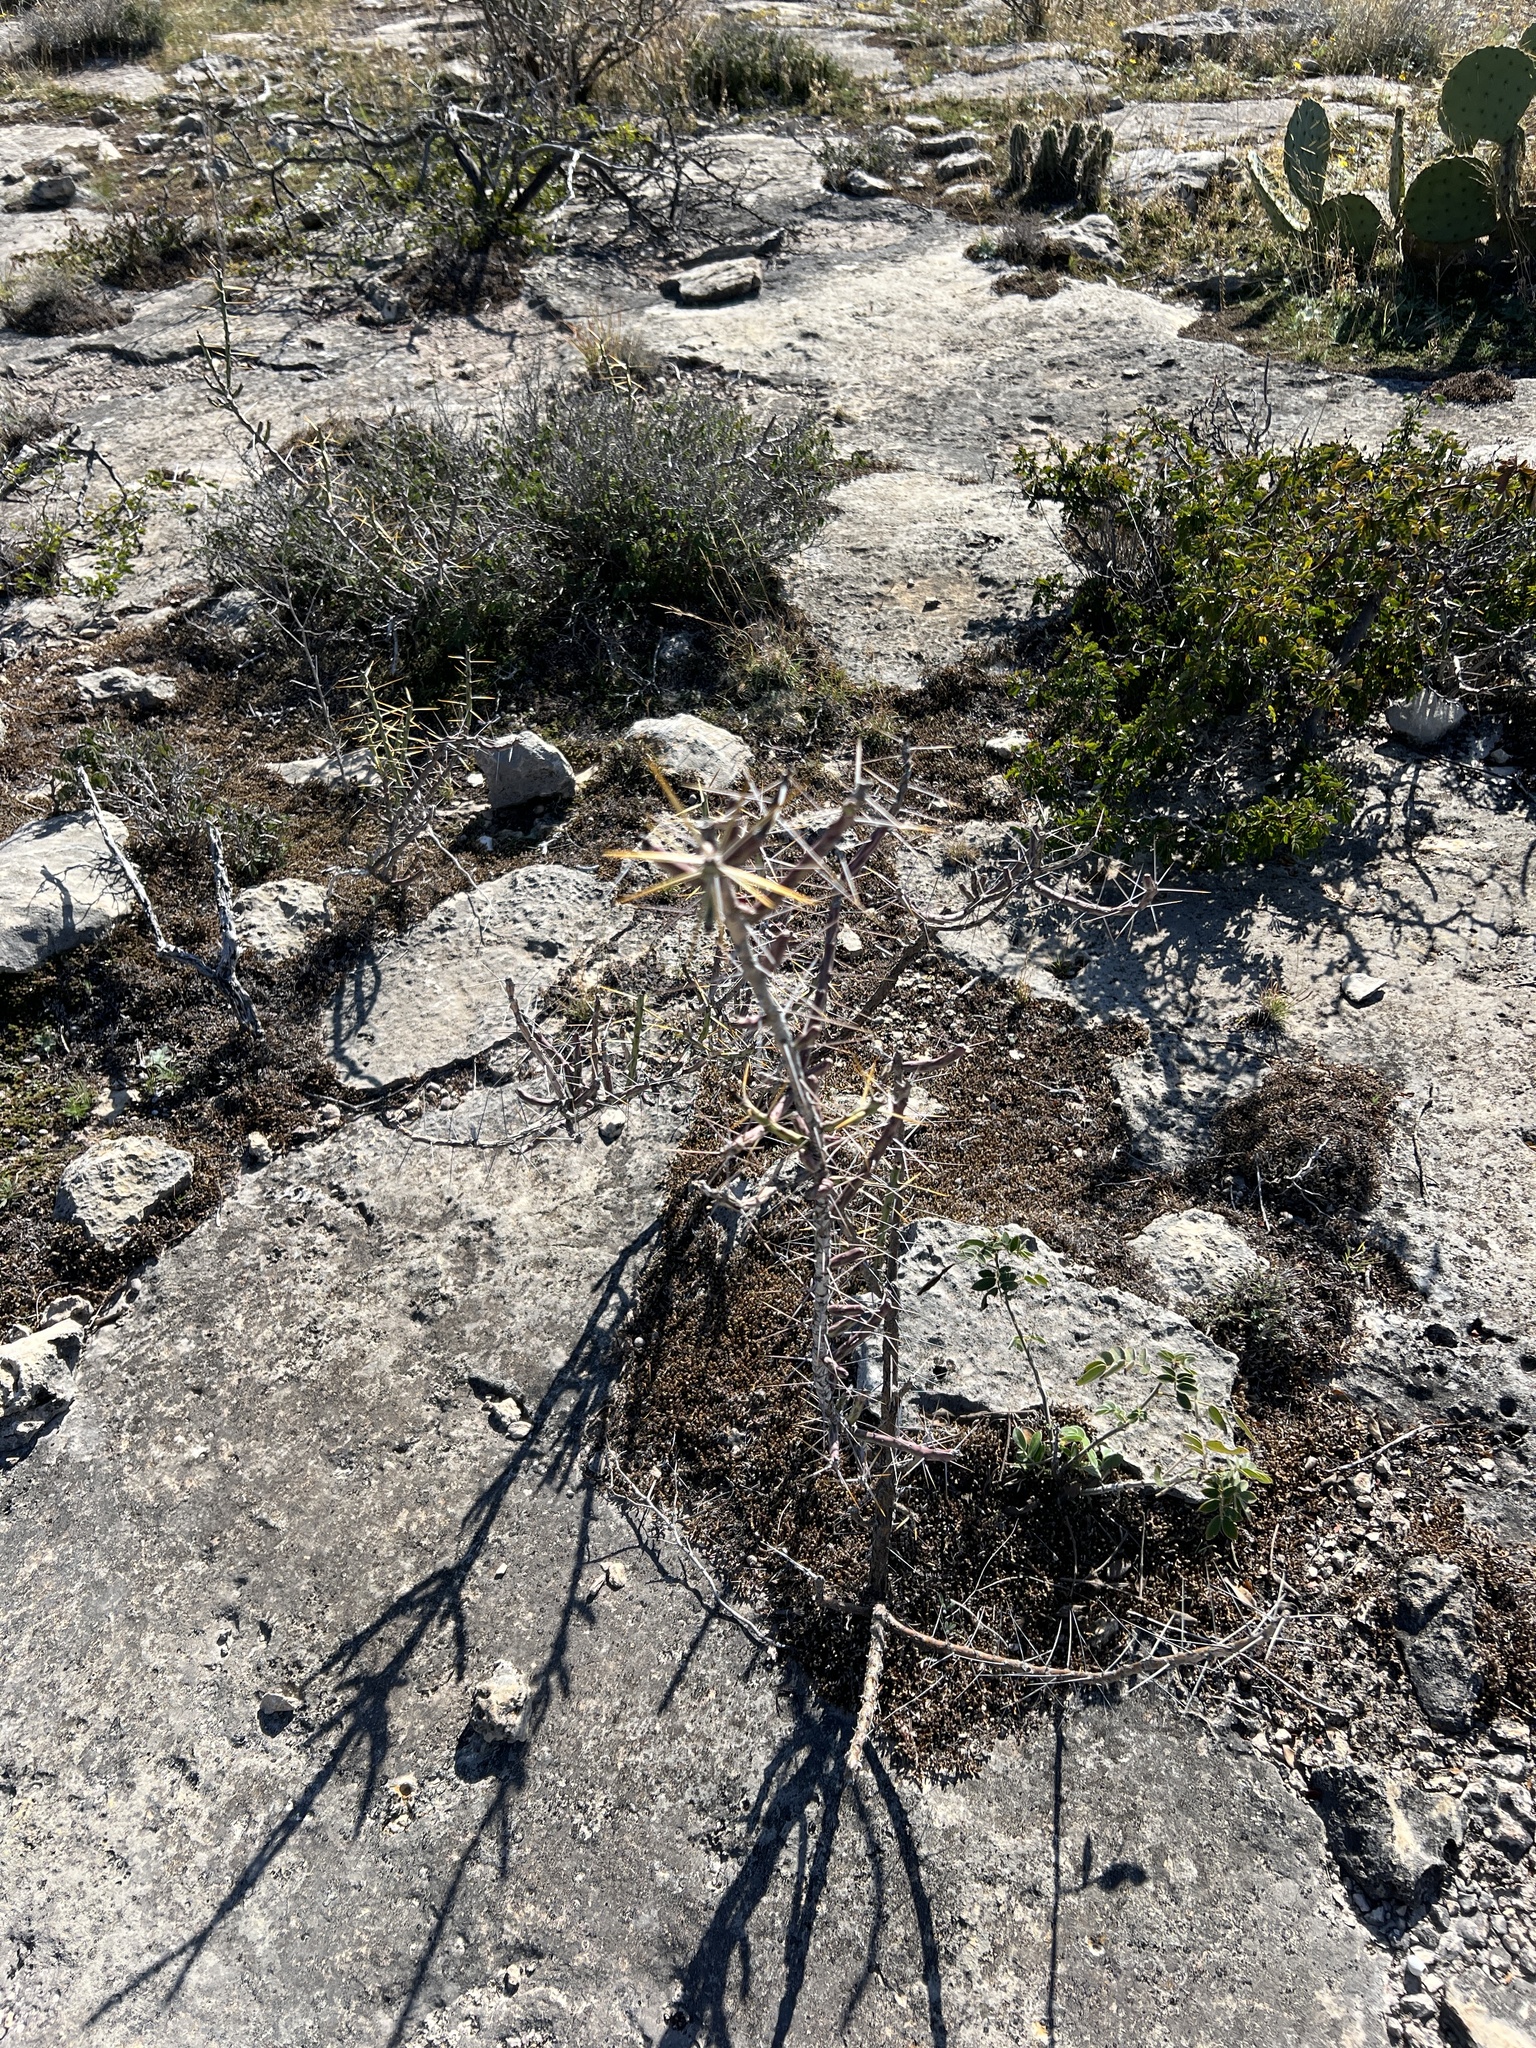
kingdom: Plantae
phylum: Tracheophyta
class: Magnoliopsida
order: Caryophyllales
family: Cactaceae
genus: Cylindropuntia
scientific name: Cylindropuntia leptocaulis
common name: Christmas cactus
